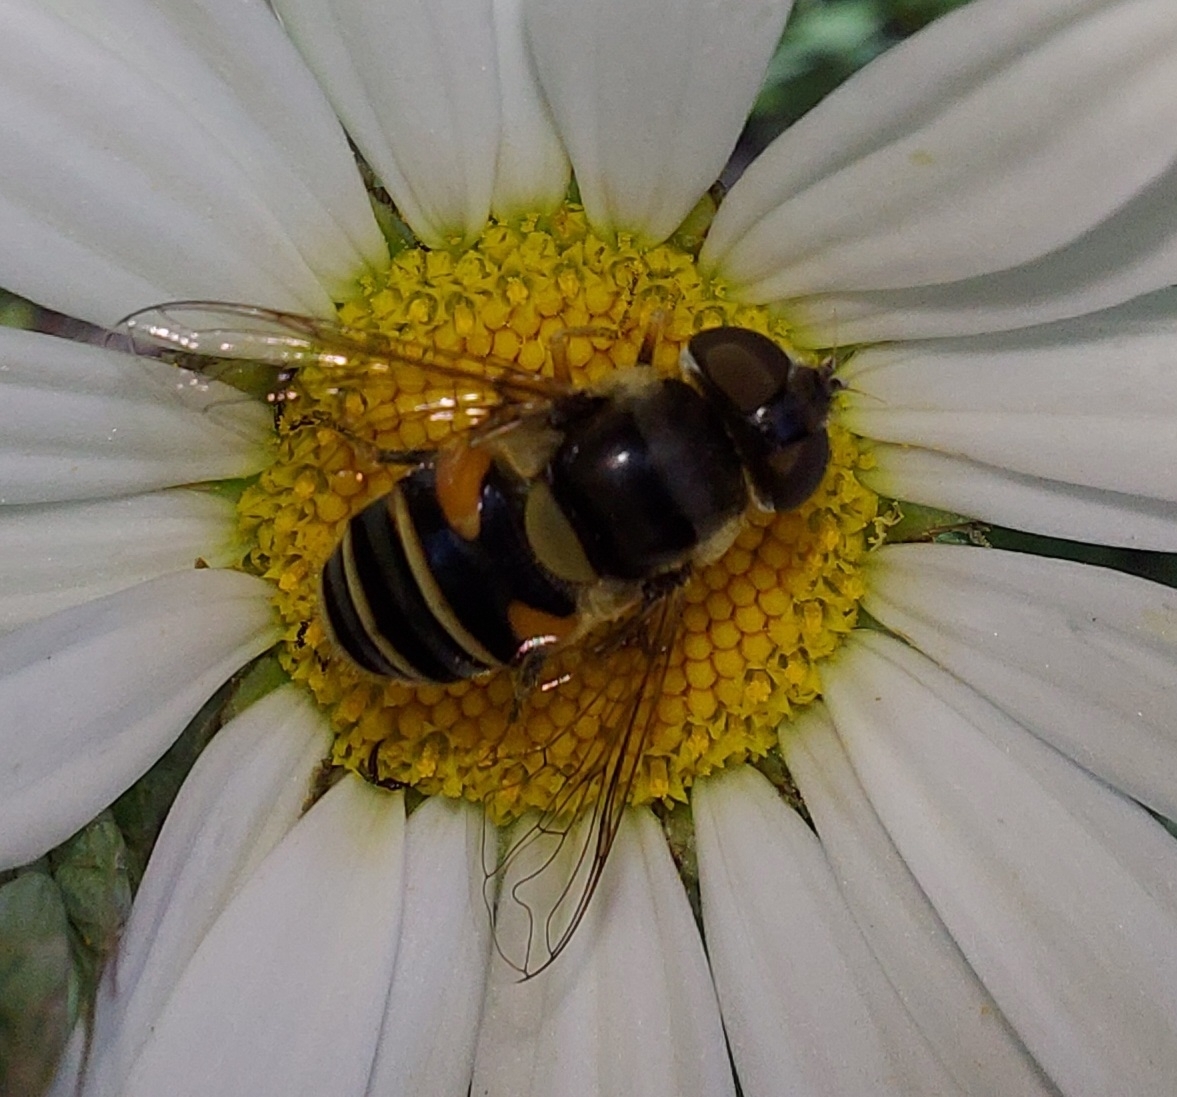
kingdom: Animalia
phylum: Arthropoda
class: Insecta
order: Diptera
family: Syrphidae
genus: Eristalis
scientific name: Eristalis transversa
